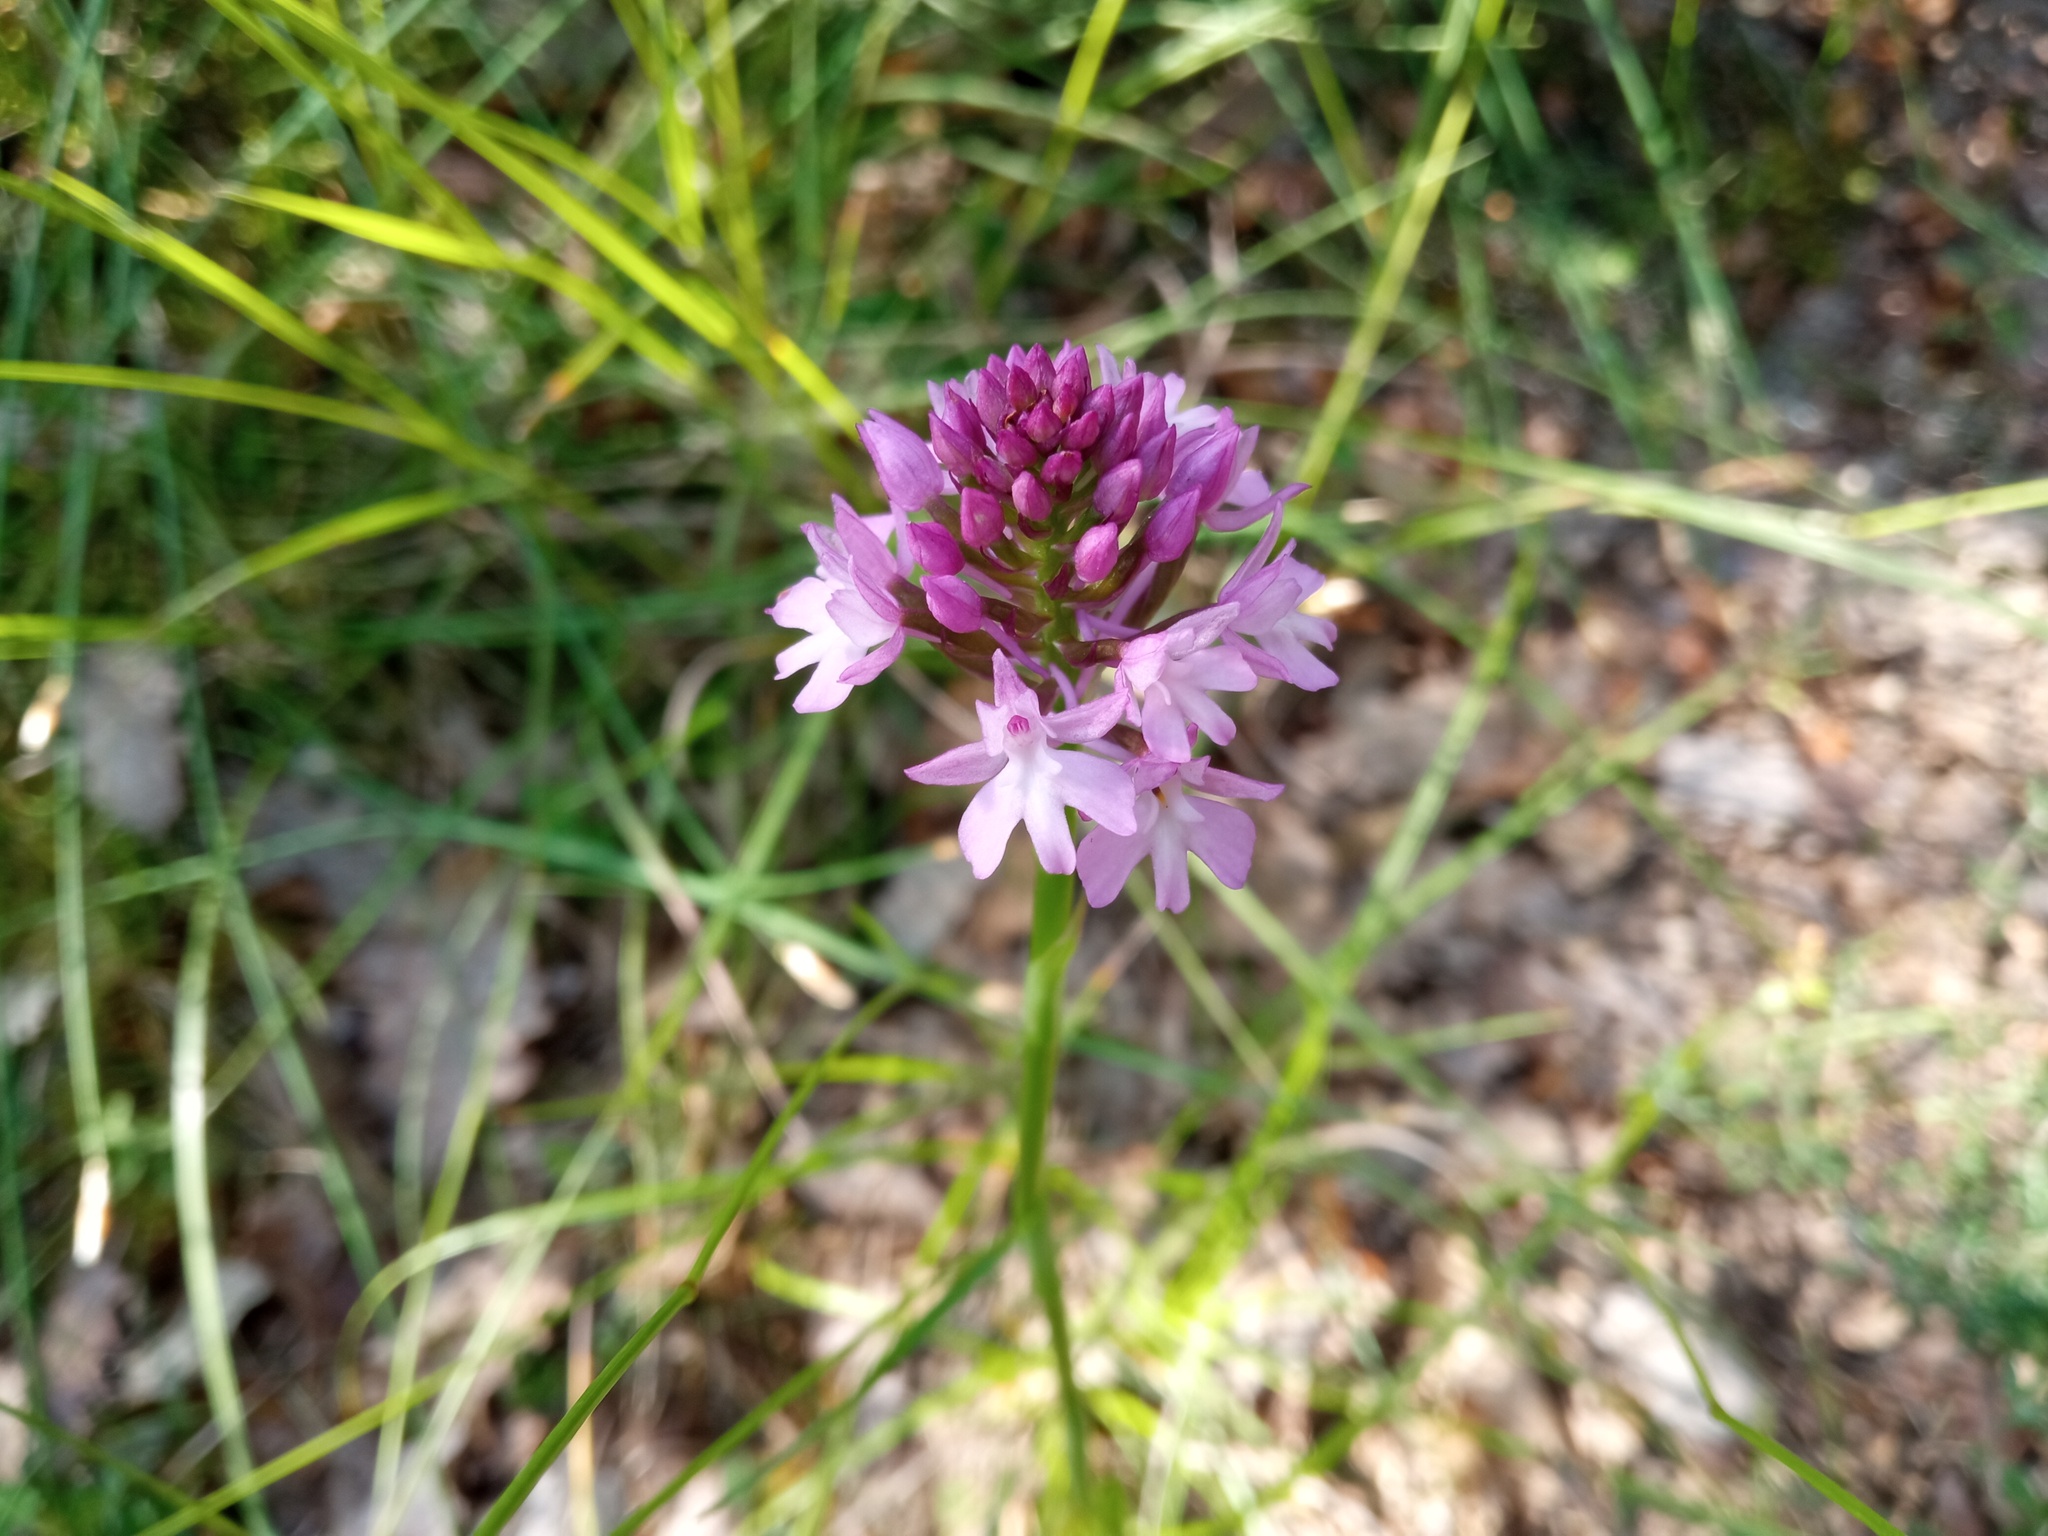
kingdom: Plantae
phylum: Tracheophyta
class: Liliopsida
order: Asparagales
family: Orchidaceae
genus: Anacamptis
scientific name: Anacamptis pyramidalis
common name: Pyramidal orchid
